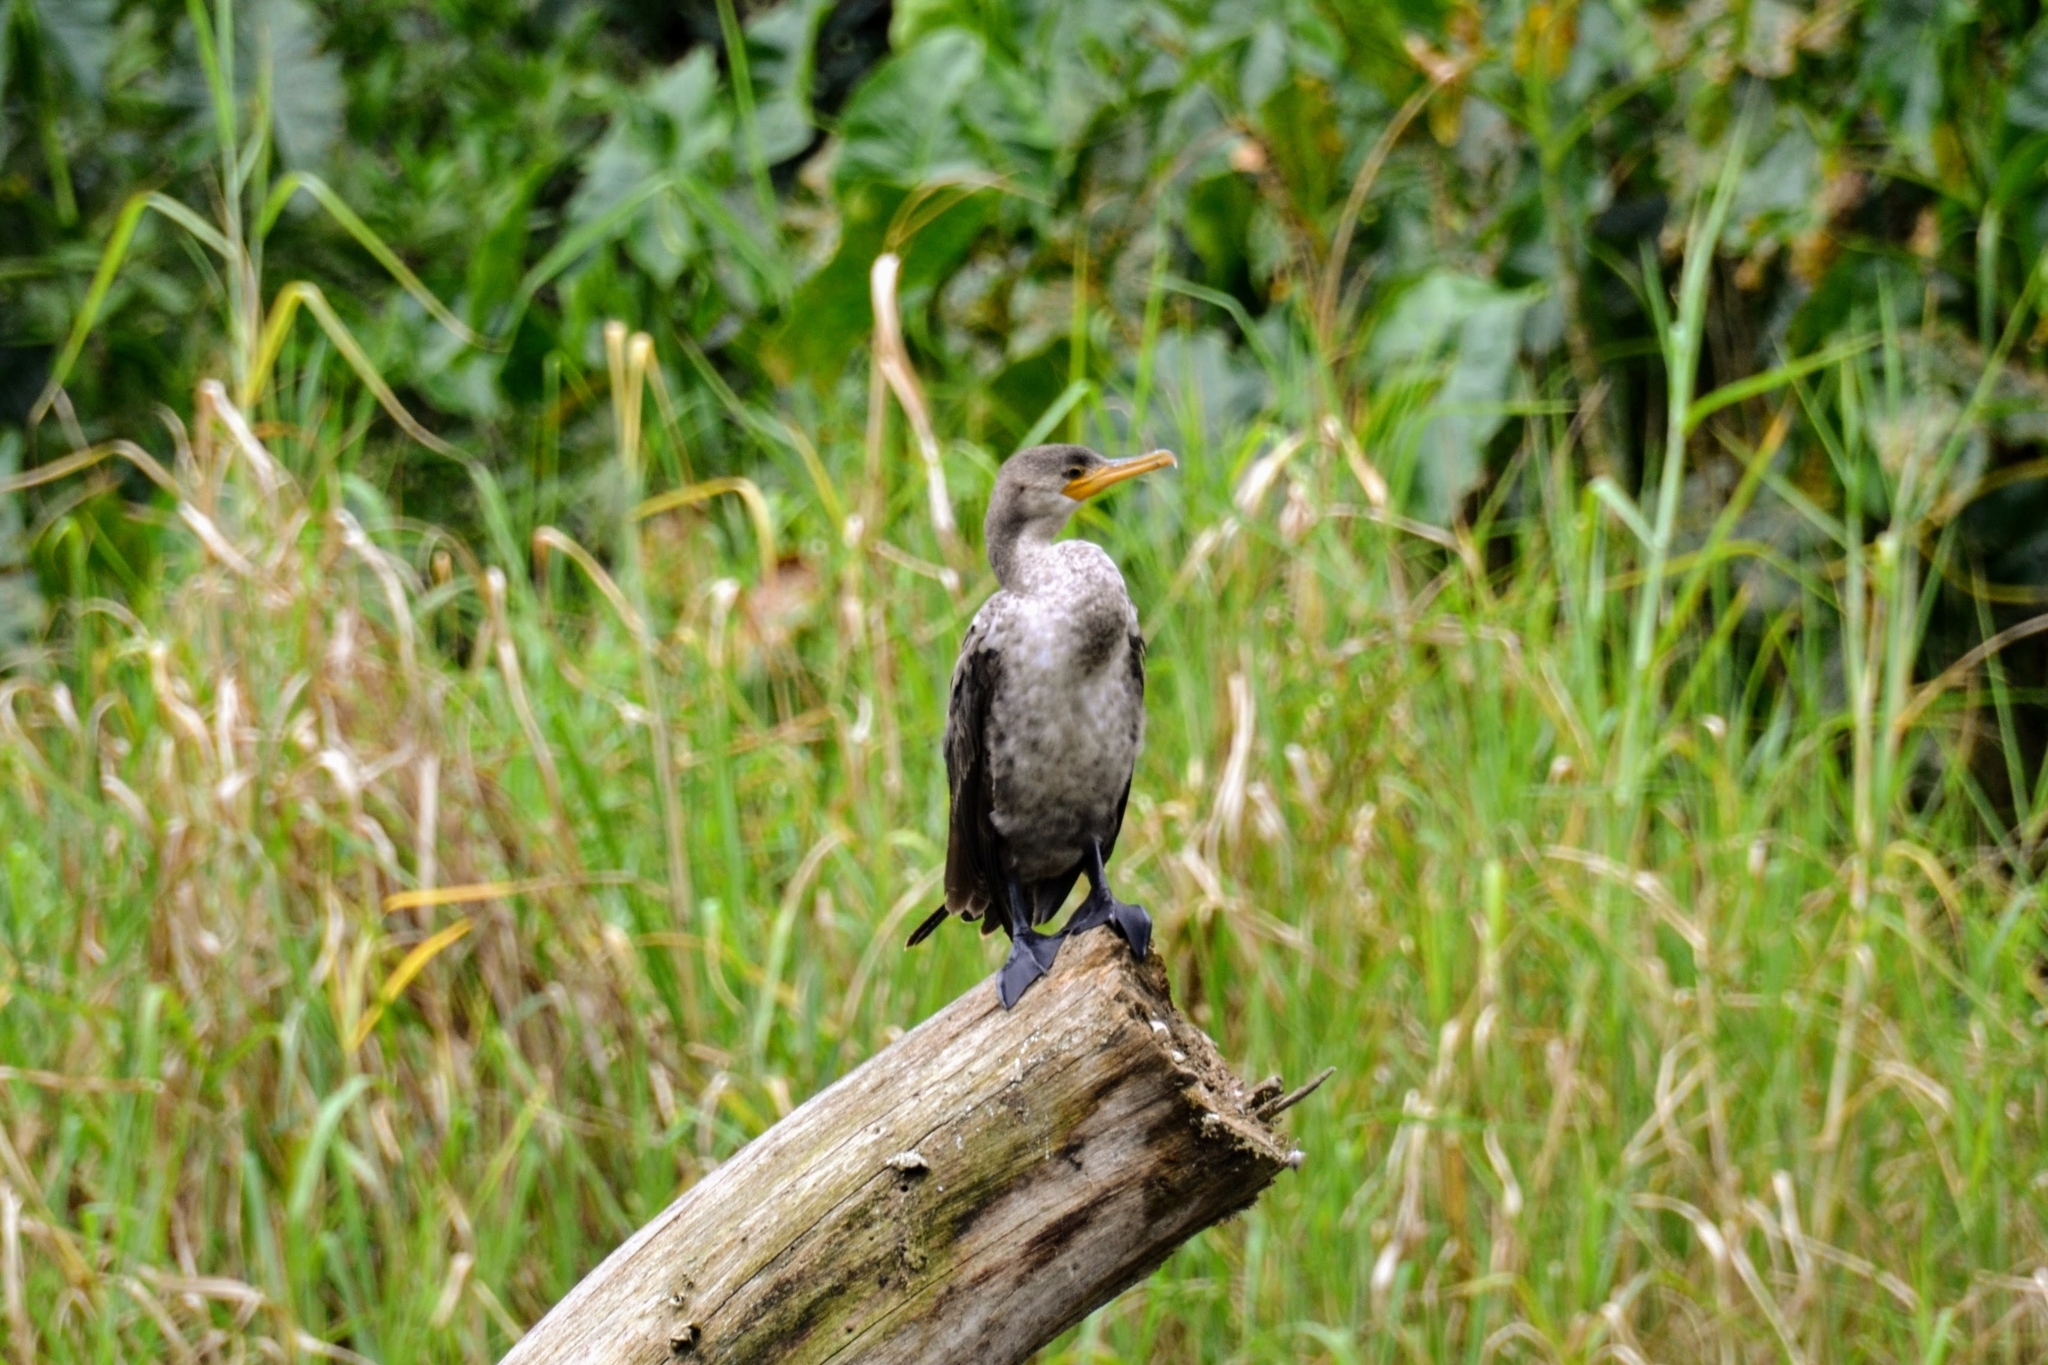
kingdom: Animalia
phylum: Chordata
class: Aves
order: Suliformes
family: Phalacrocoracidae
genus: Phalacrocorax
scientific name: Phalacrocorax brasilianus
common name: Neotropic cormorant
